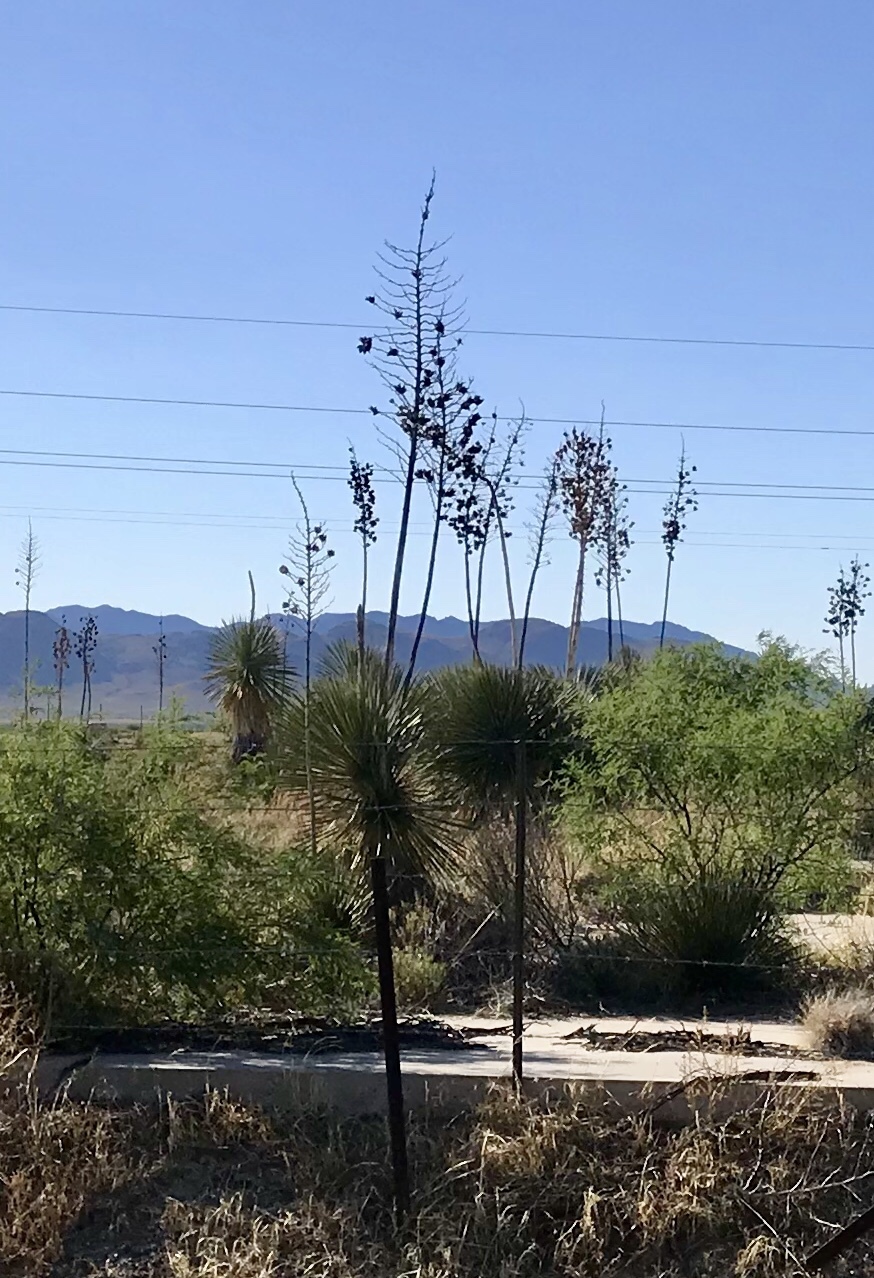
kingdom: Plantae
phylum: Tracheophyta
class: Liliopsida
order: Asparagales
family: Asparagaceae
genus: Yucca
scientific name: Yucca elata
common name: Palmella
